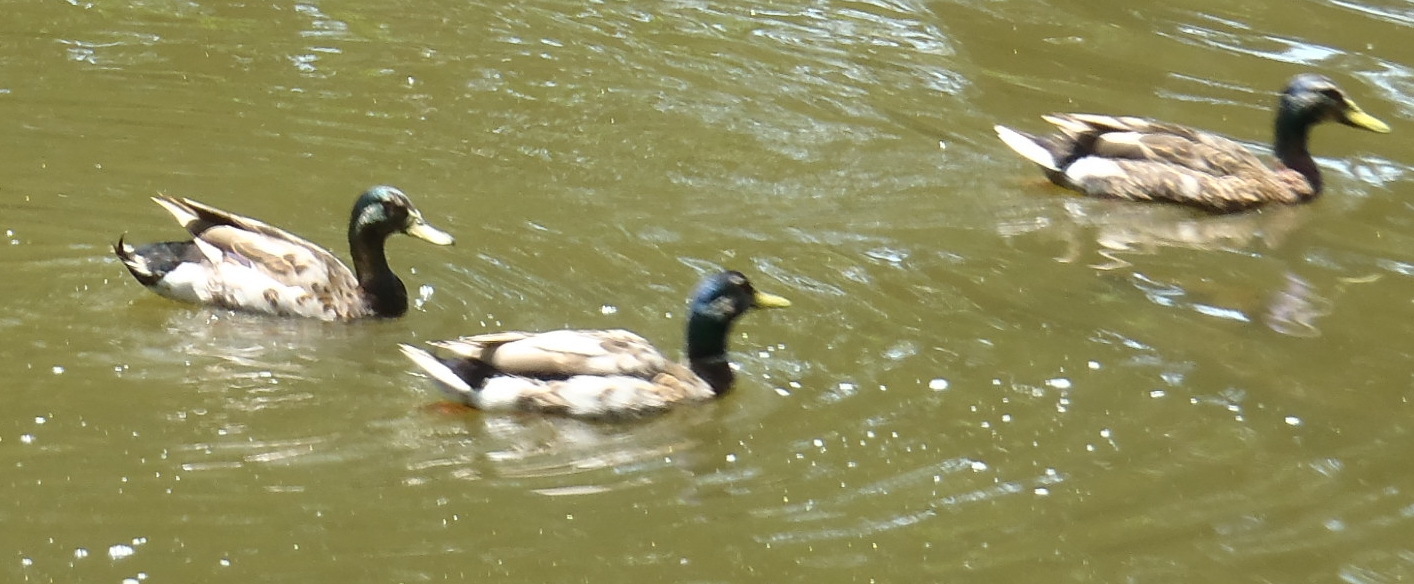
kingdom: Animalia
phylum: Chordata
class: Aves
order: Anseriformes
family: Anatidae
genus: Anas
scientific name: Anas platyrhynchos
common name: Mallard
